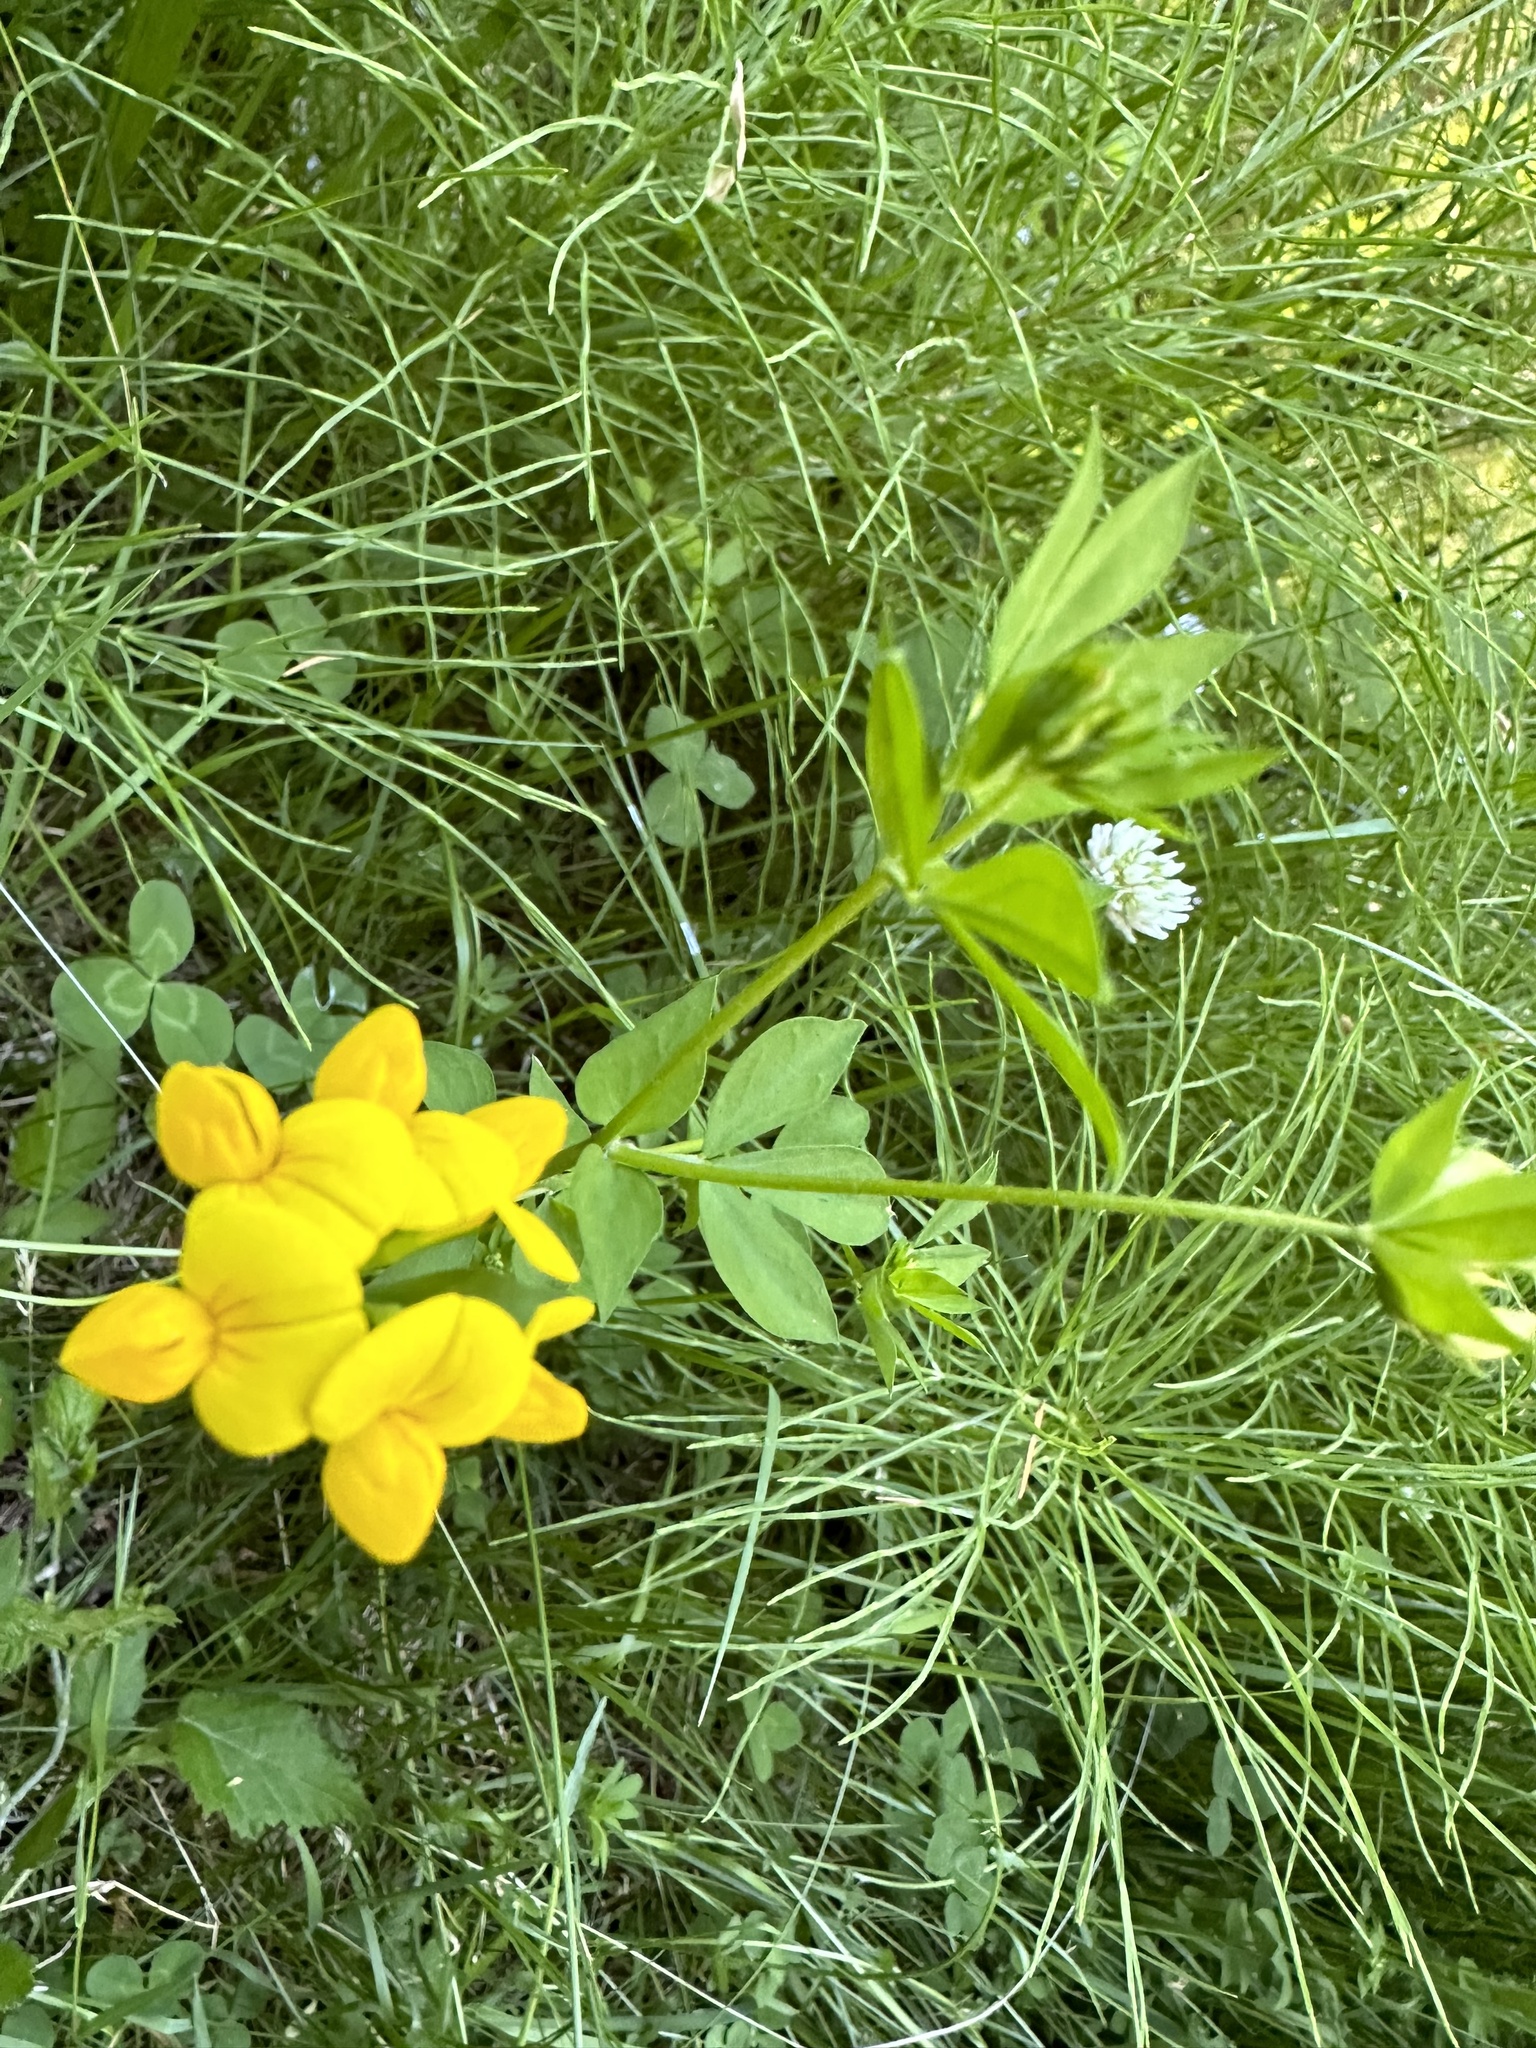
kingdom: Plantae
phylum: Tracheophyta
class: Magnoliopsida
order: Fabales
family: Fabaceae
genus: Lotus
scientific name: Lotus corniculatus
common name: Common bird's-foot-trefoil
